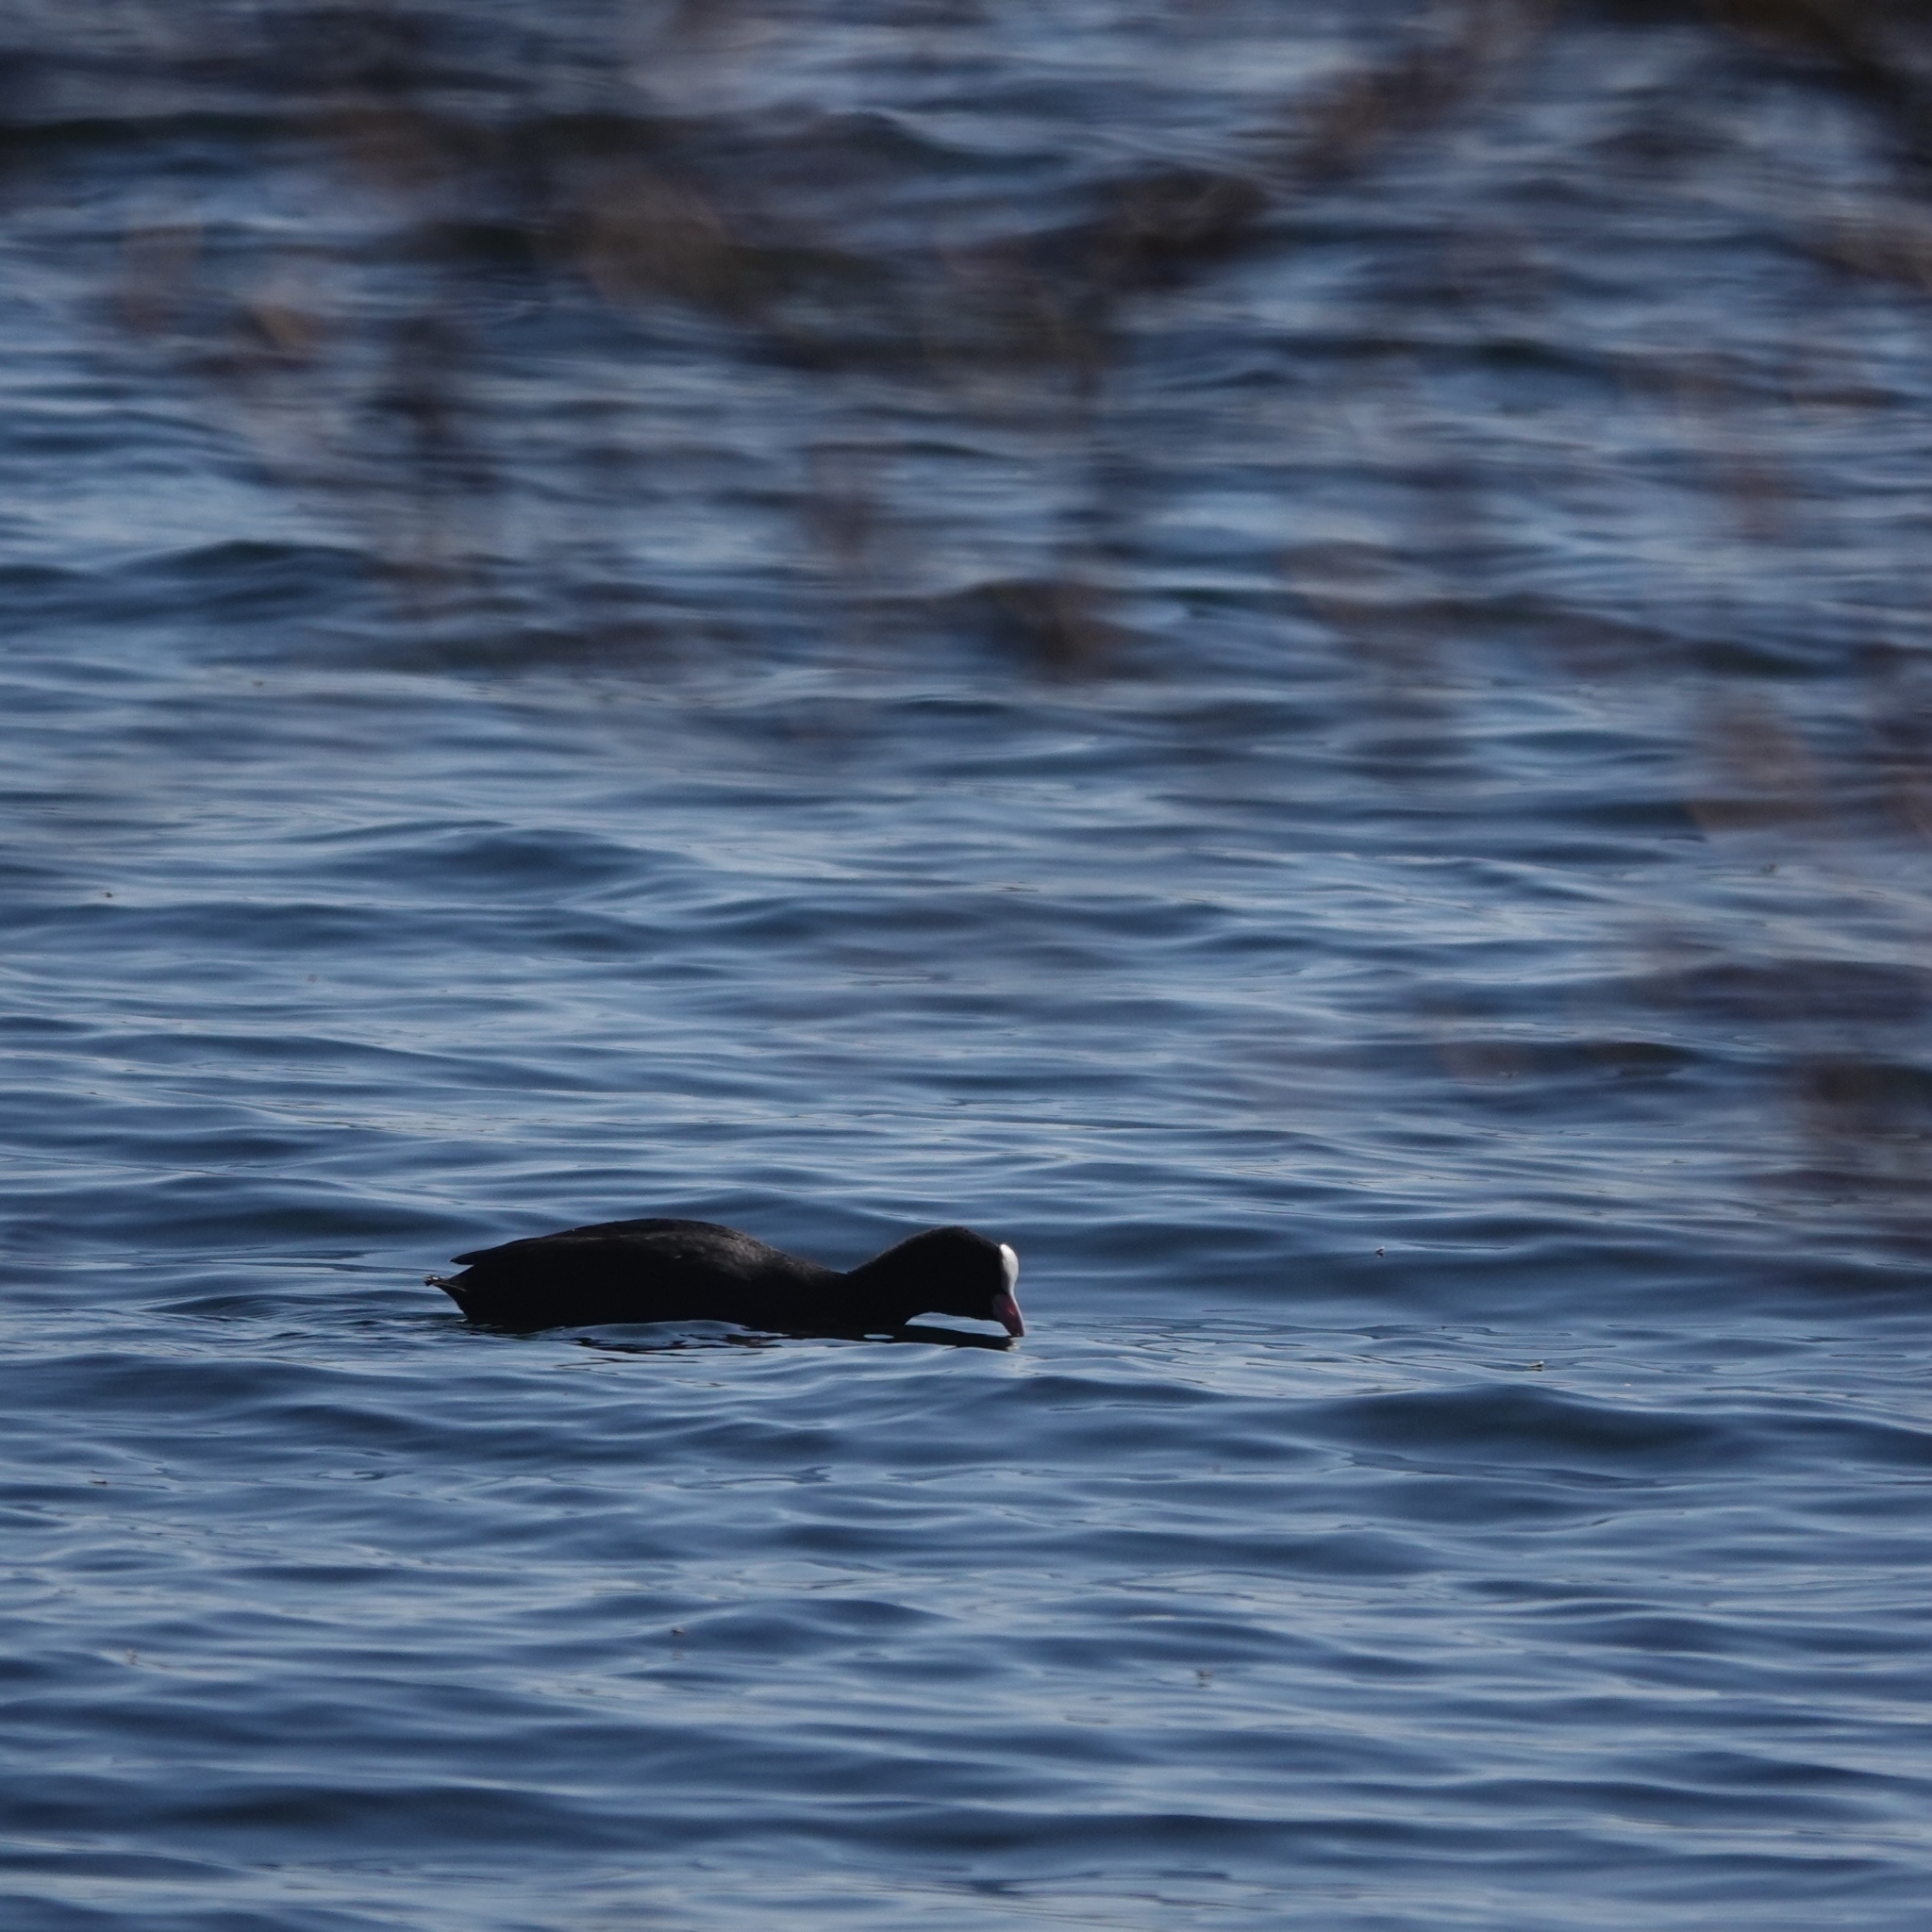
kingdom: Animalia
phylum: Chordata
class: Aves
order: Gruiformes
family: Rallidae
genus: Fulica
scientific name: Fulica atra
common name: Eurasian coot
